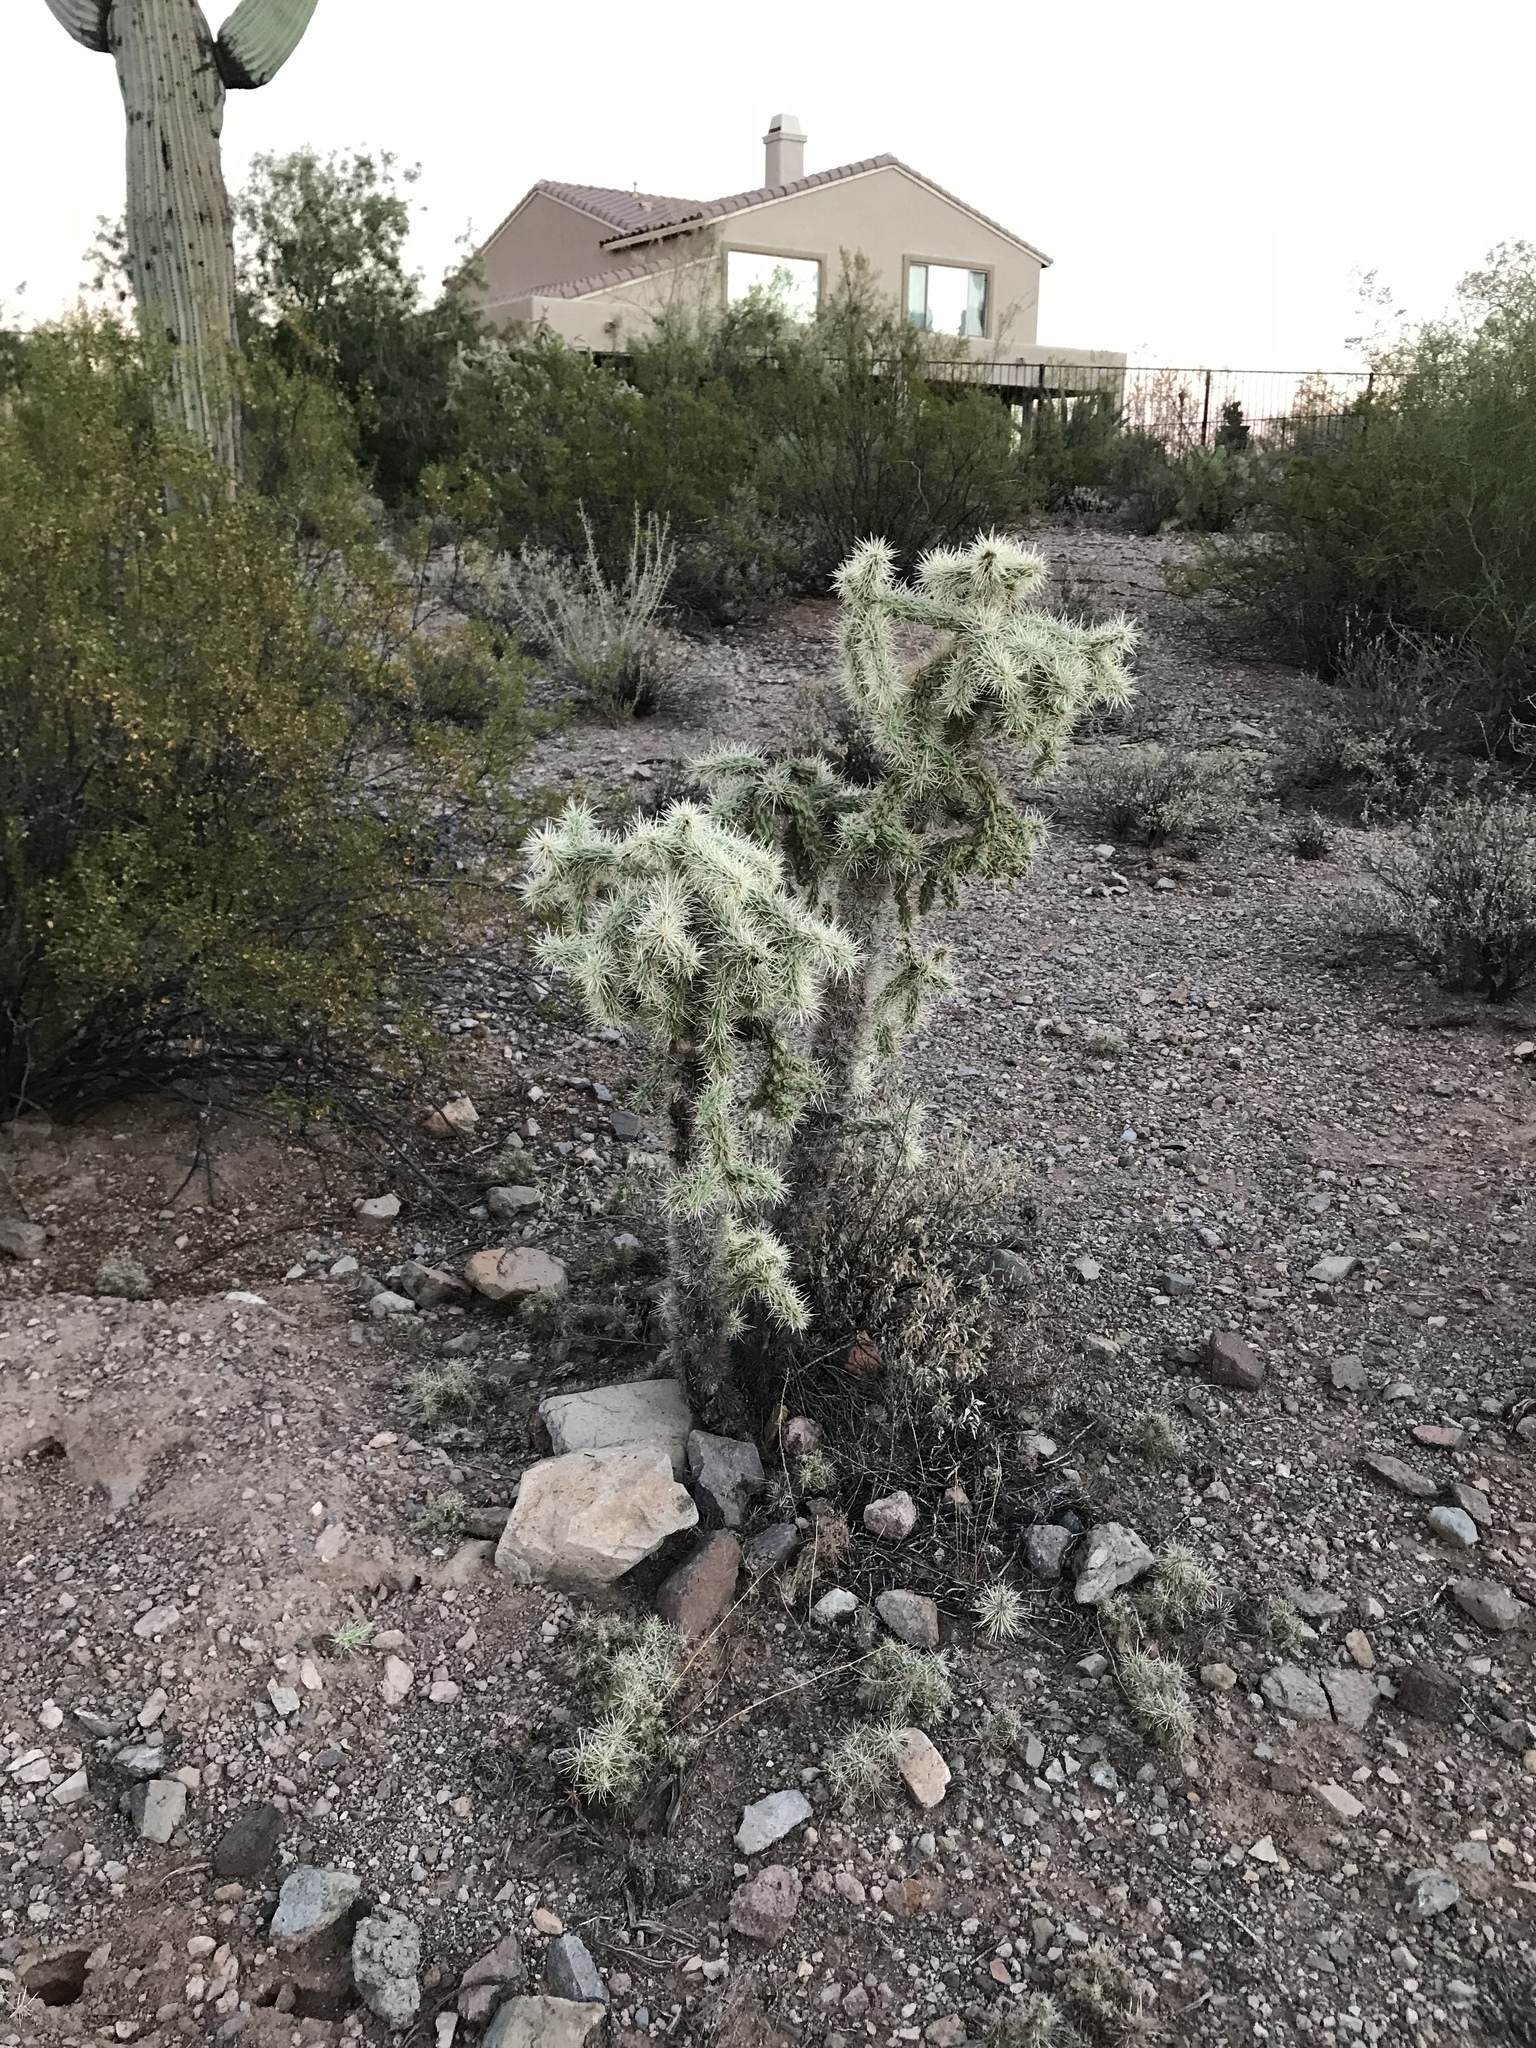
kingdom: Plantae
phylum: Tracheophyta
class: Magnoliopsida
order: Caryophyllales
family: Cactaceae
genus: Cylindropuntia
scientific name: Cylindropuntia fulgida
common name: Jumping cholla
